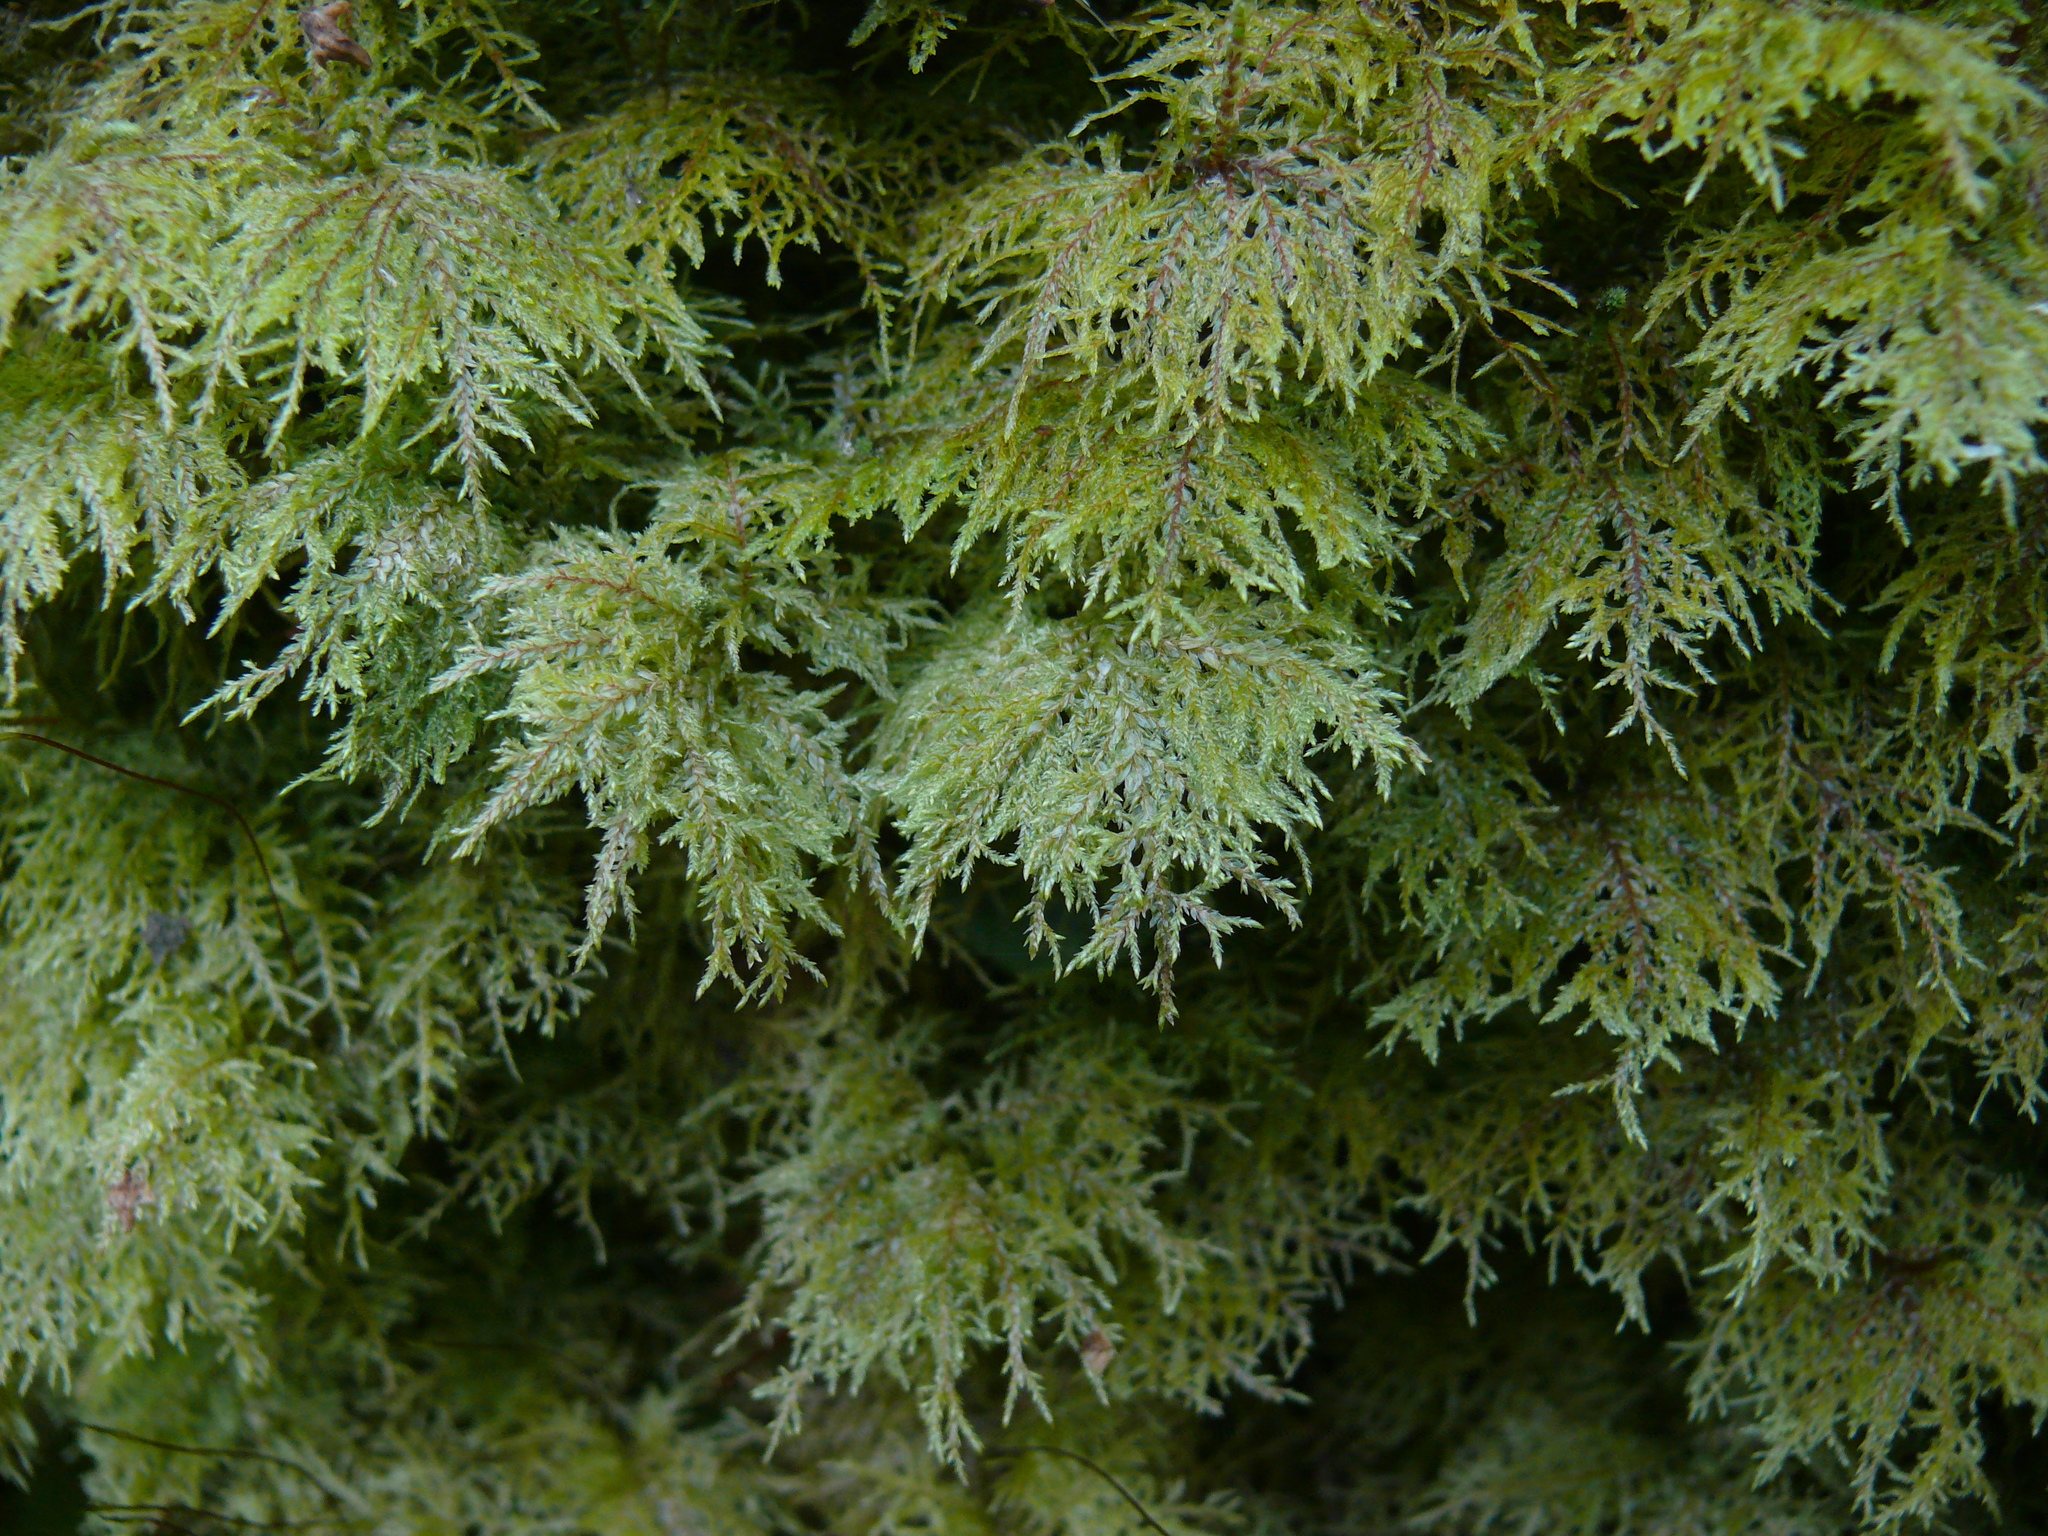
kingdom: Plantae
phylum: Bryophyta
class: Bryopsida
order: Hypnales
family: Hylocomiaceae
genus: Hylocomium
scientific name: Hylocomium splendens
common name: Stairstep moss
